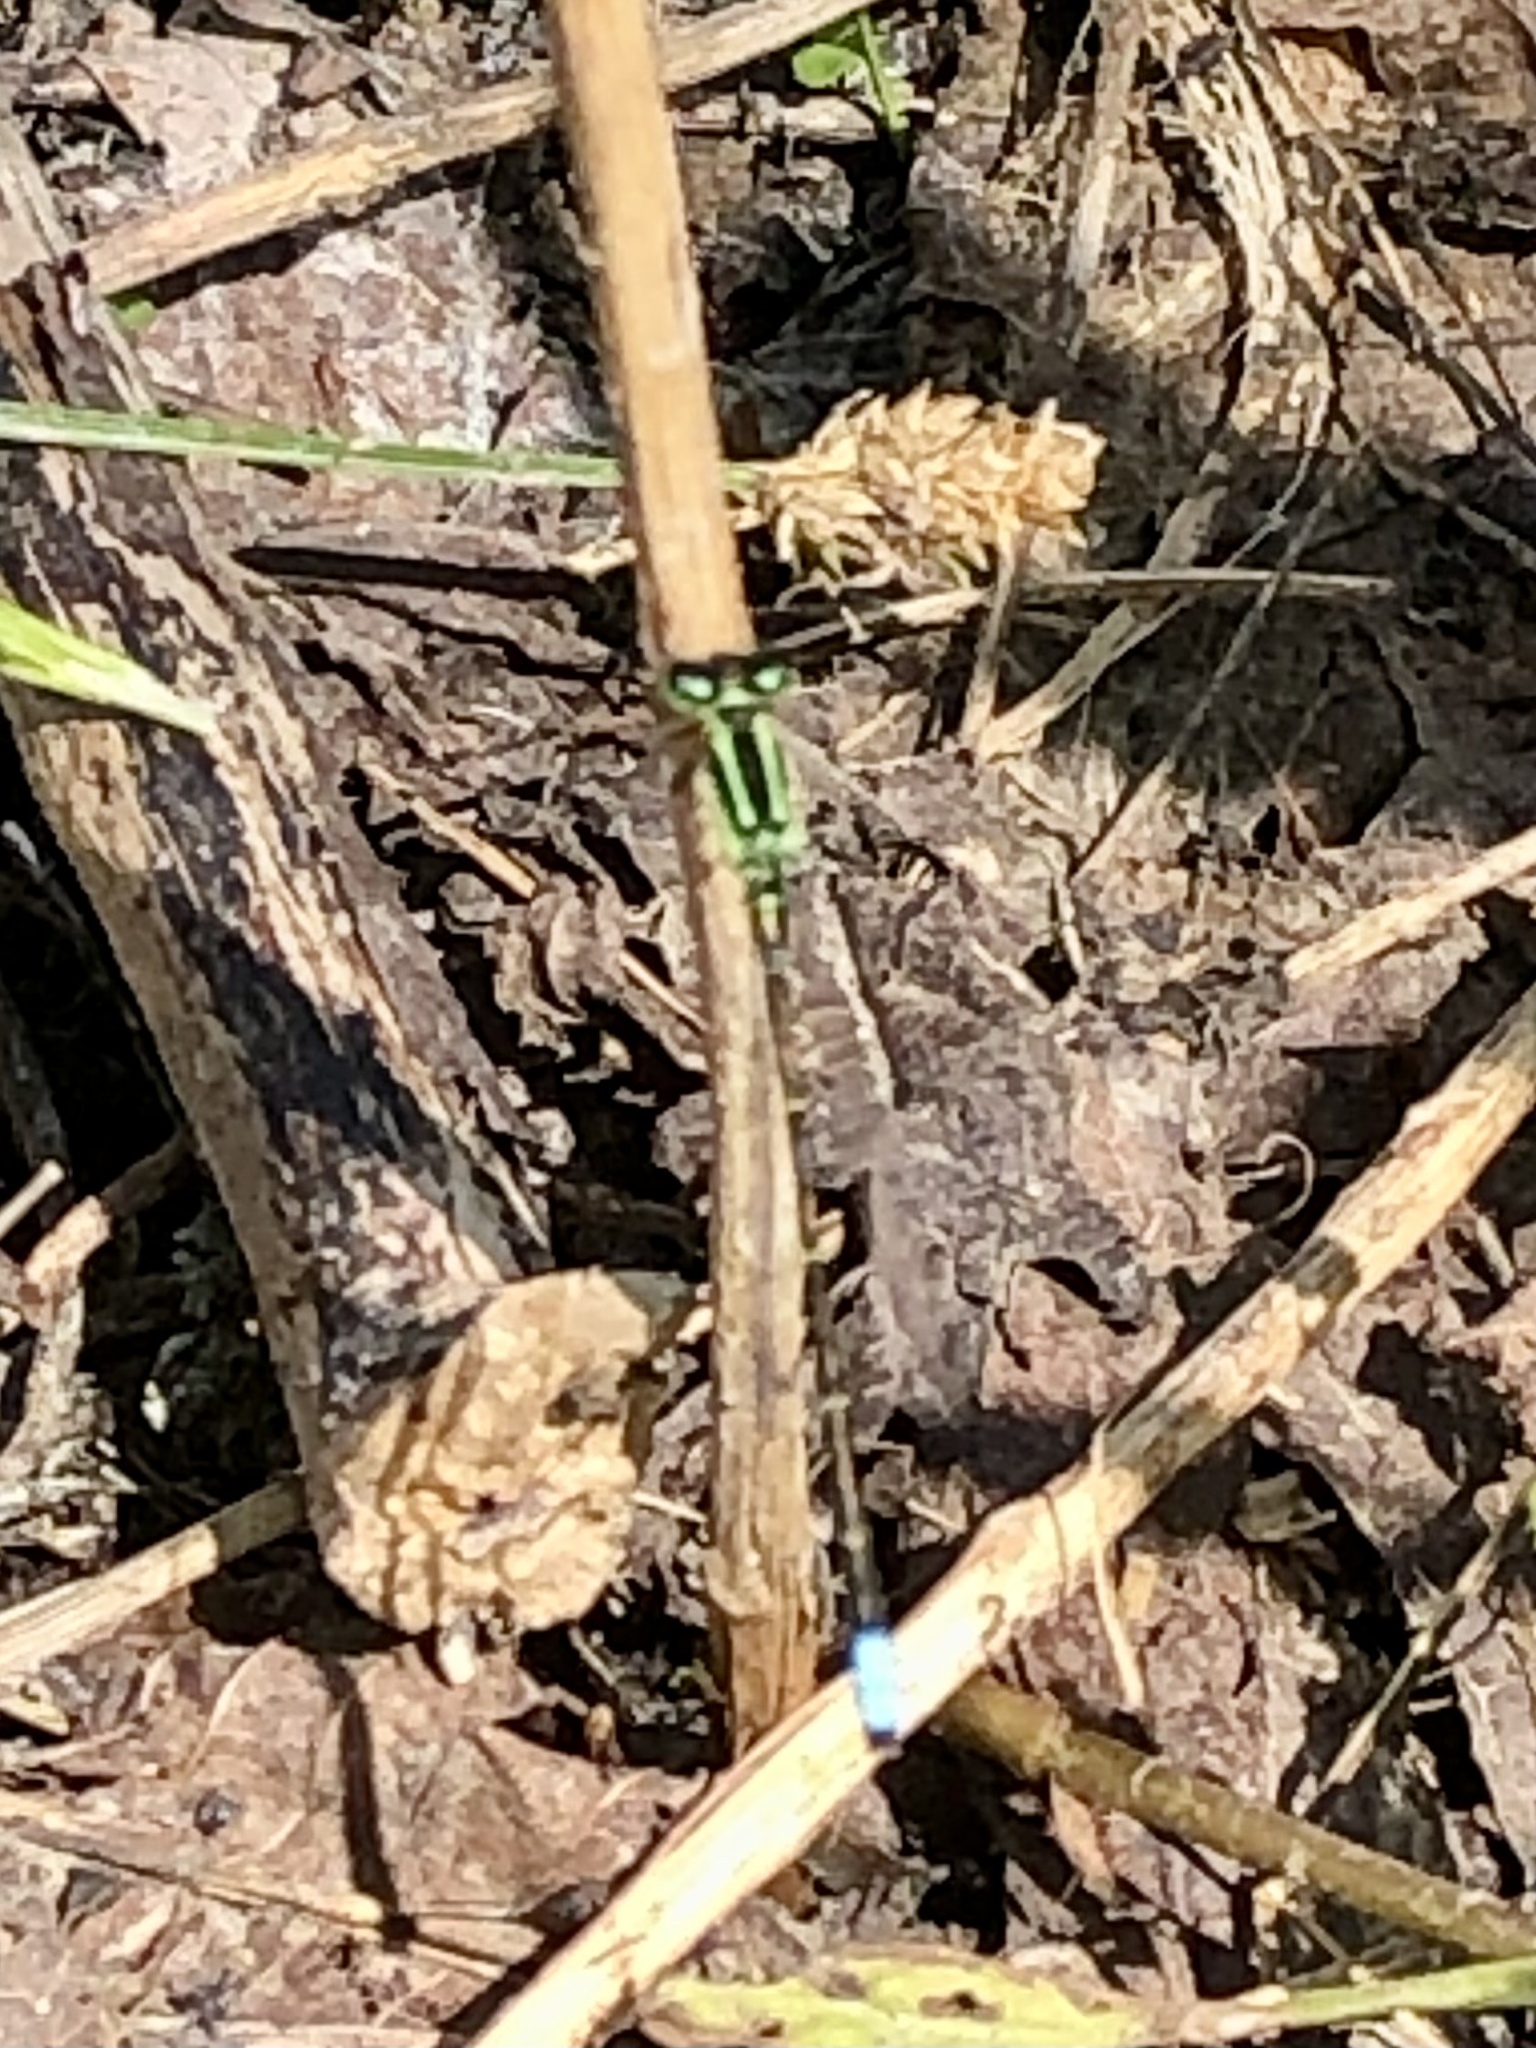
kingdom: Animalia
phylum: Arthropoda
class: Insecta
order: Odonata
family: Coenagrionidae
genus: Ischnura
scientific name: Ischnura verticalis
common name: Eastern forktail
